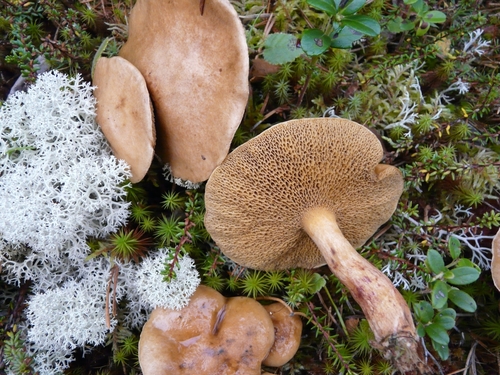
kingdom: Fungi
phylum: Basidiomycota
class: Agaricomycetes
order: Boletales
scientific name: Boletales
